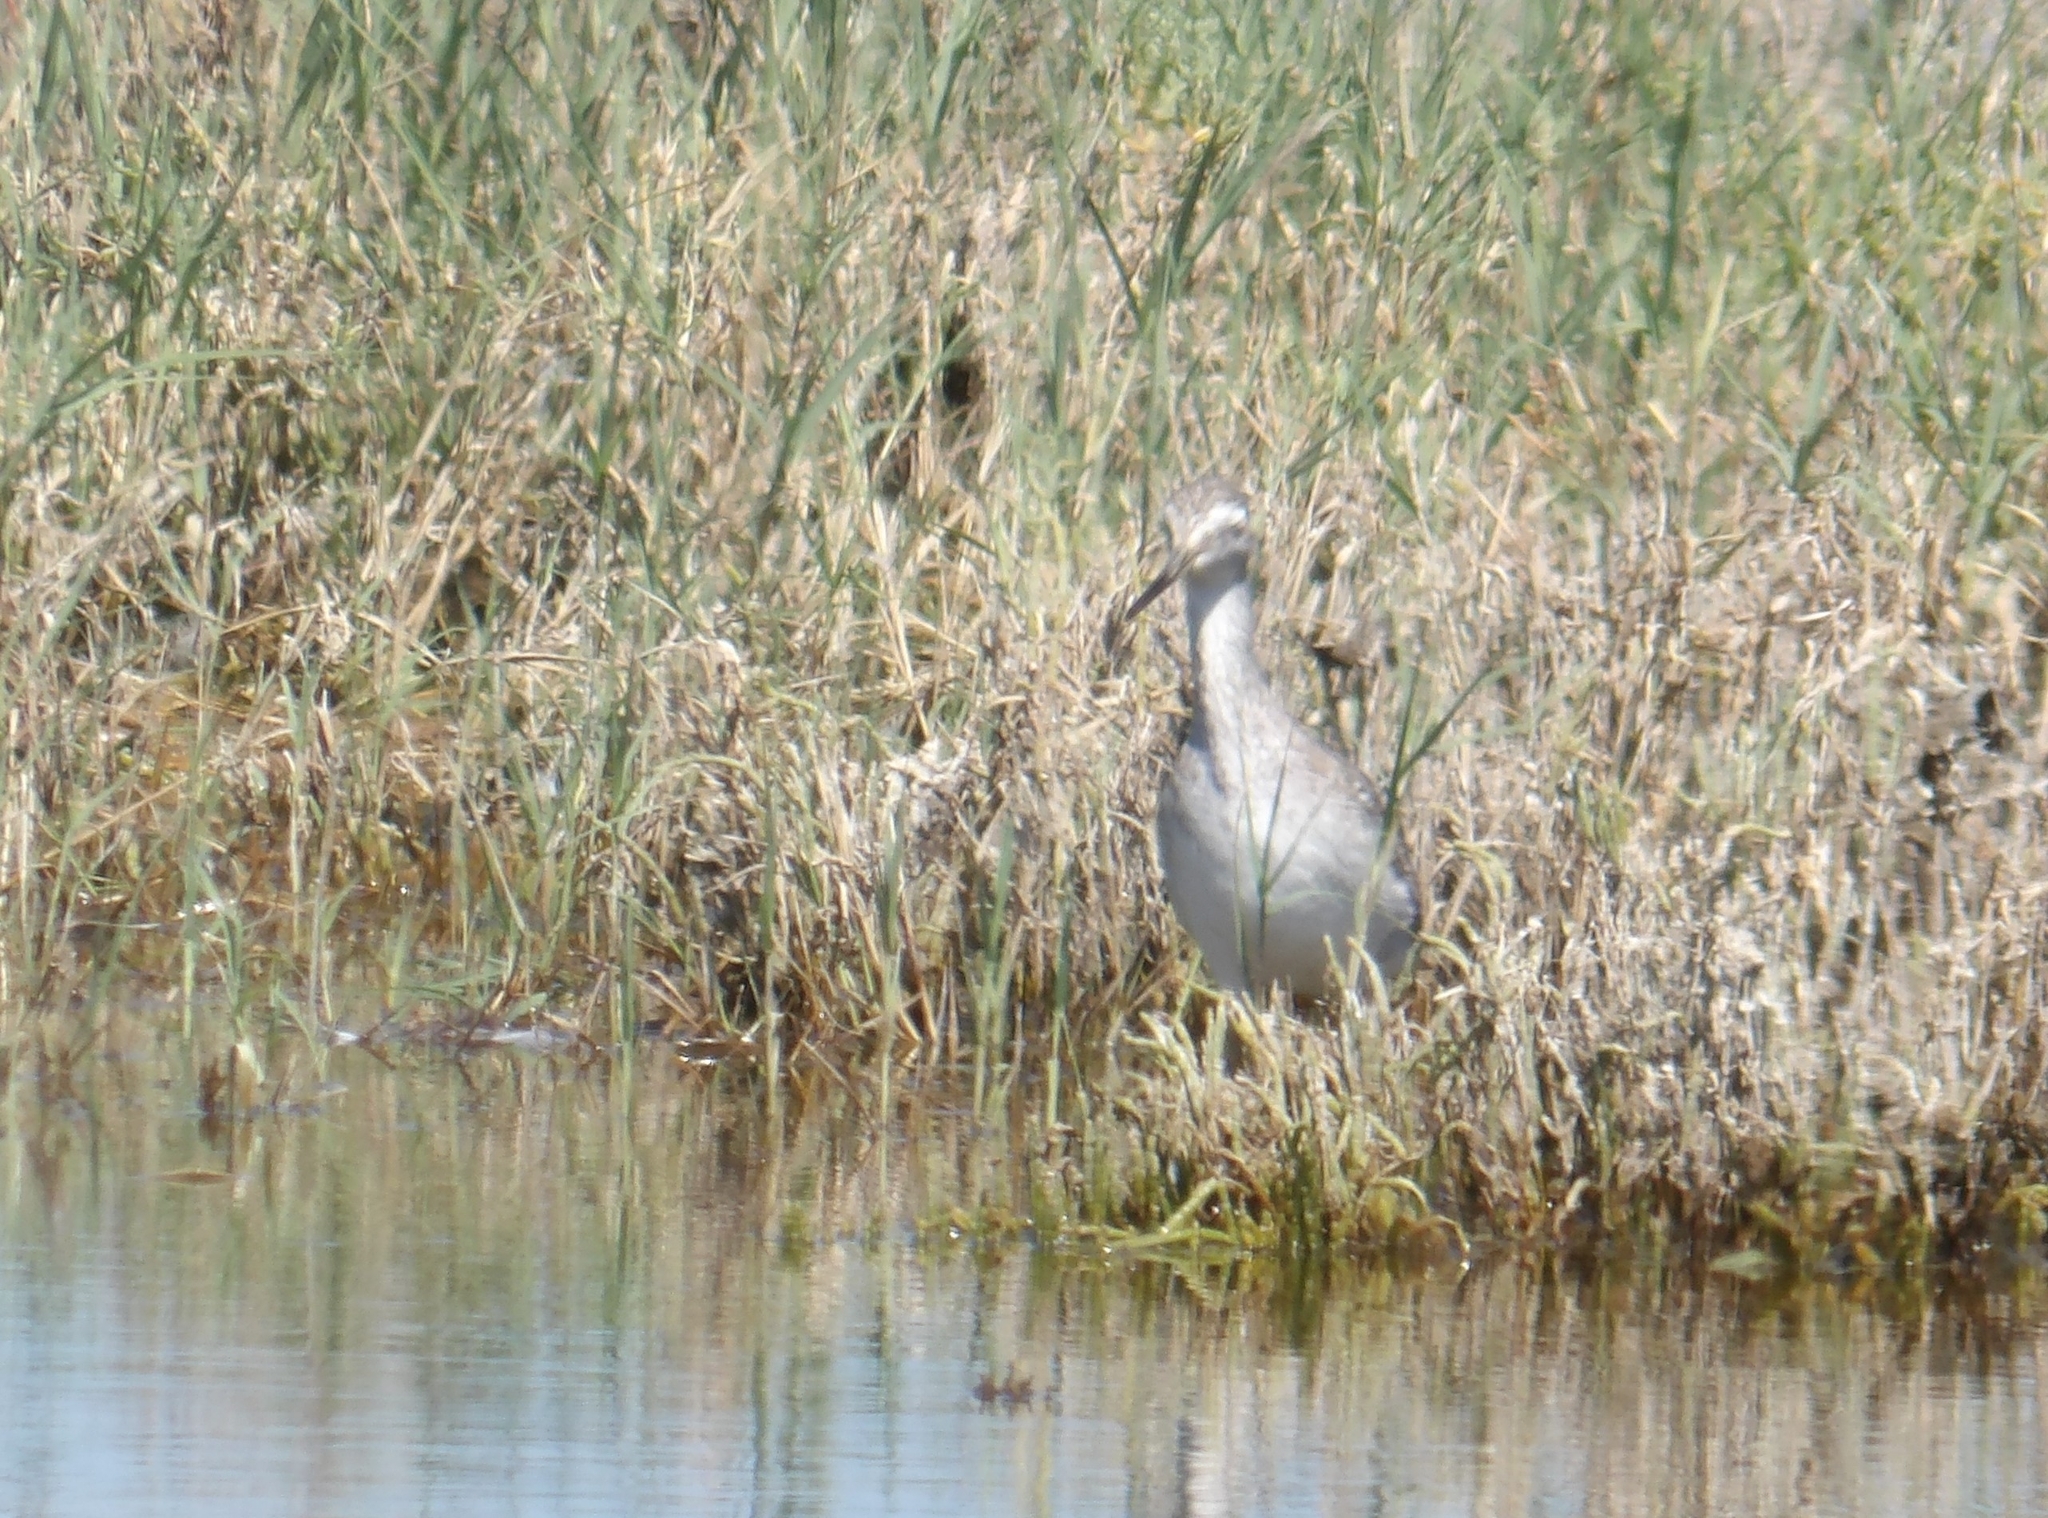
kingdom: Animalia
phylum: Chordata
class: Aves
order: Charadriiformes
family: Scolopacidae
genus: Tringa
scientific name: Tringa melanoleuca
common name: Greater yellowlegs
